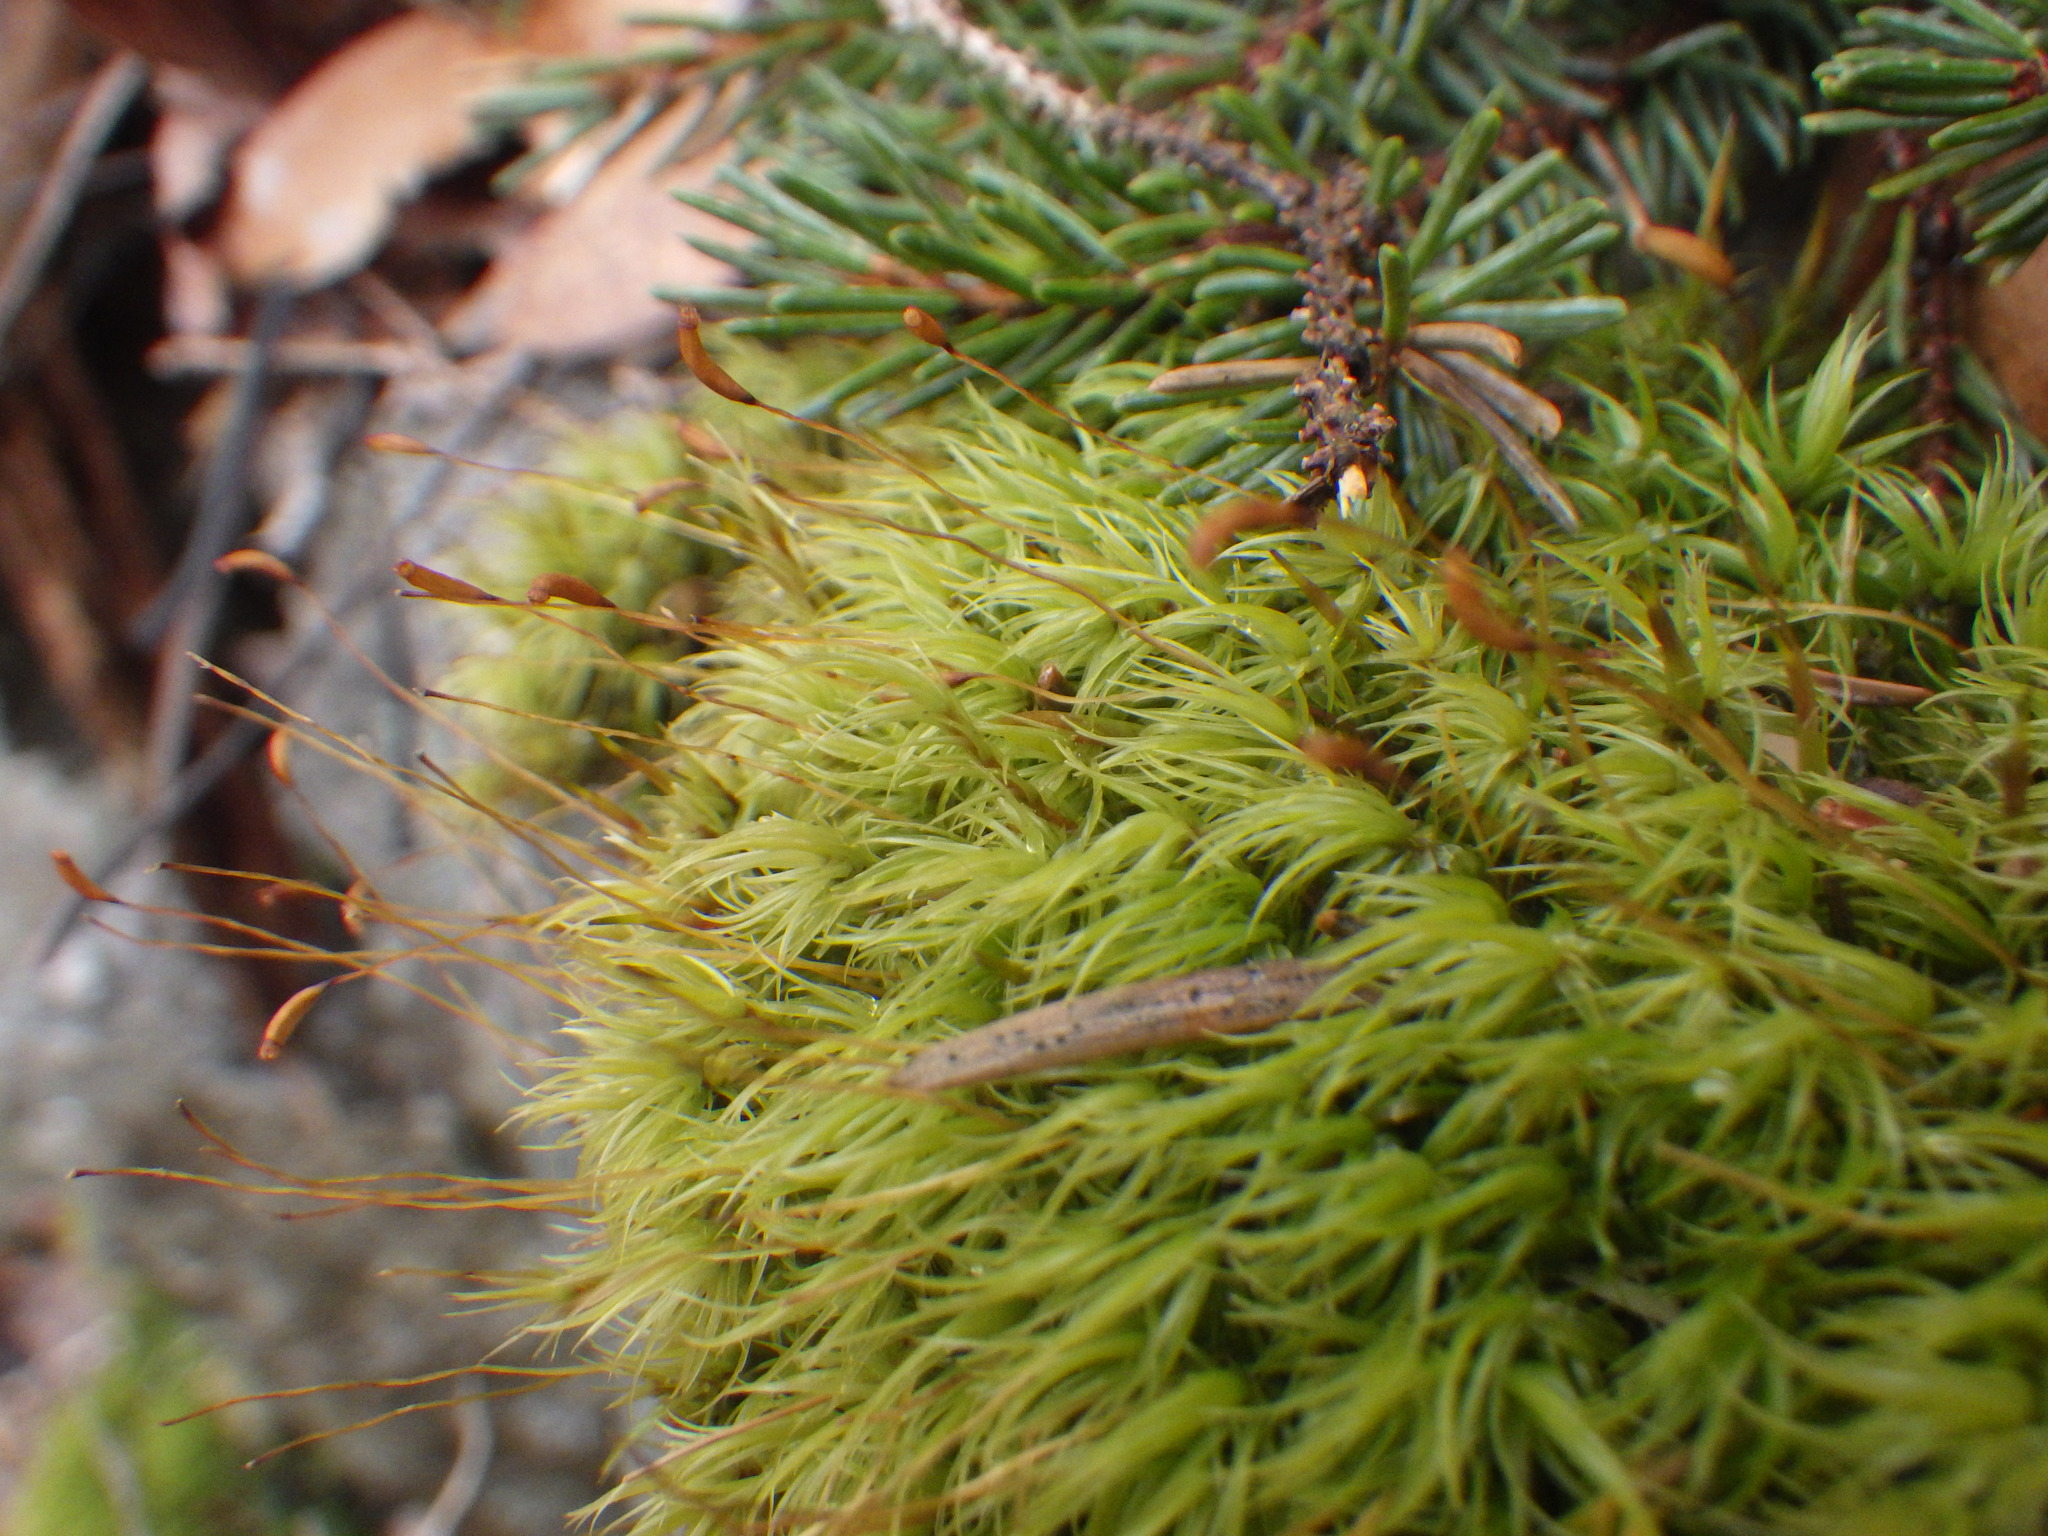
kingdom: Plantae
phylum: Bryophyta
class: Bryopsida
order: Dicranales
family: Dicranaceae
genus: Dicranum
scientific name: Dicranum scoparium
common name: Broom fork-moss
